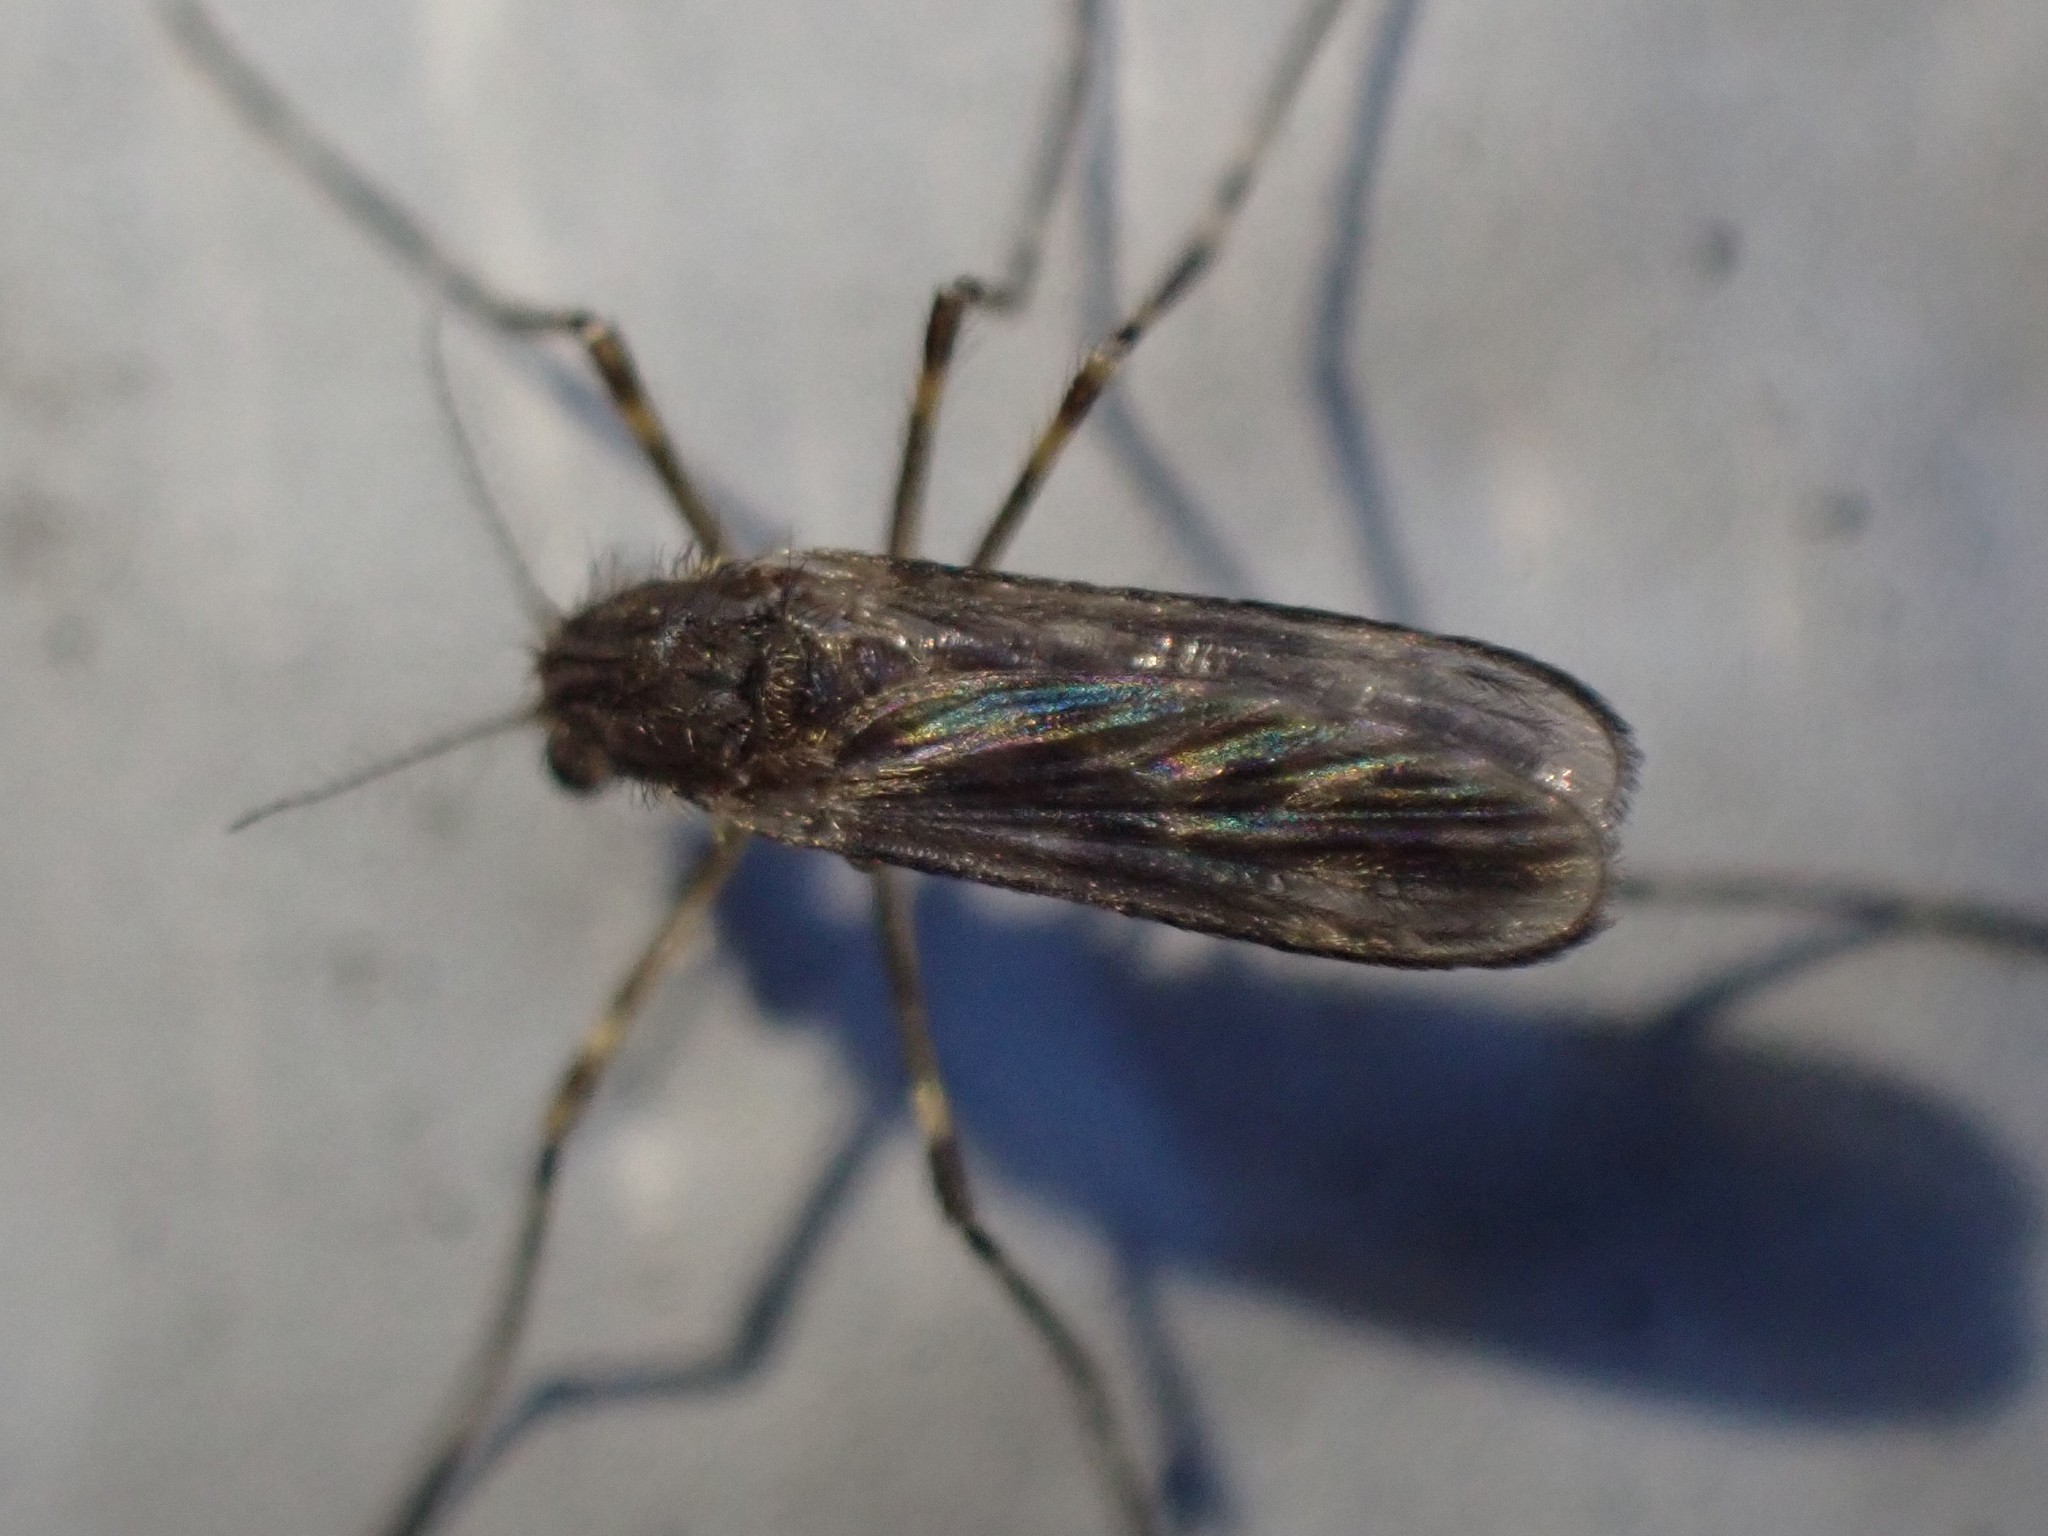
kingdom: Animalia
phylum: Arthropoda
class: Insecta
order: Diptera
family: Chaoboridae
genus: Mochlonyx
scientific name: Mochlonyx cinctipes
